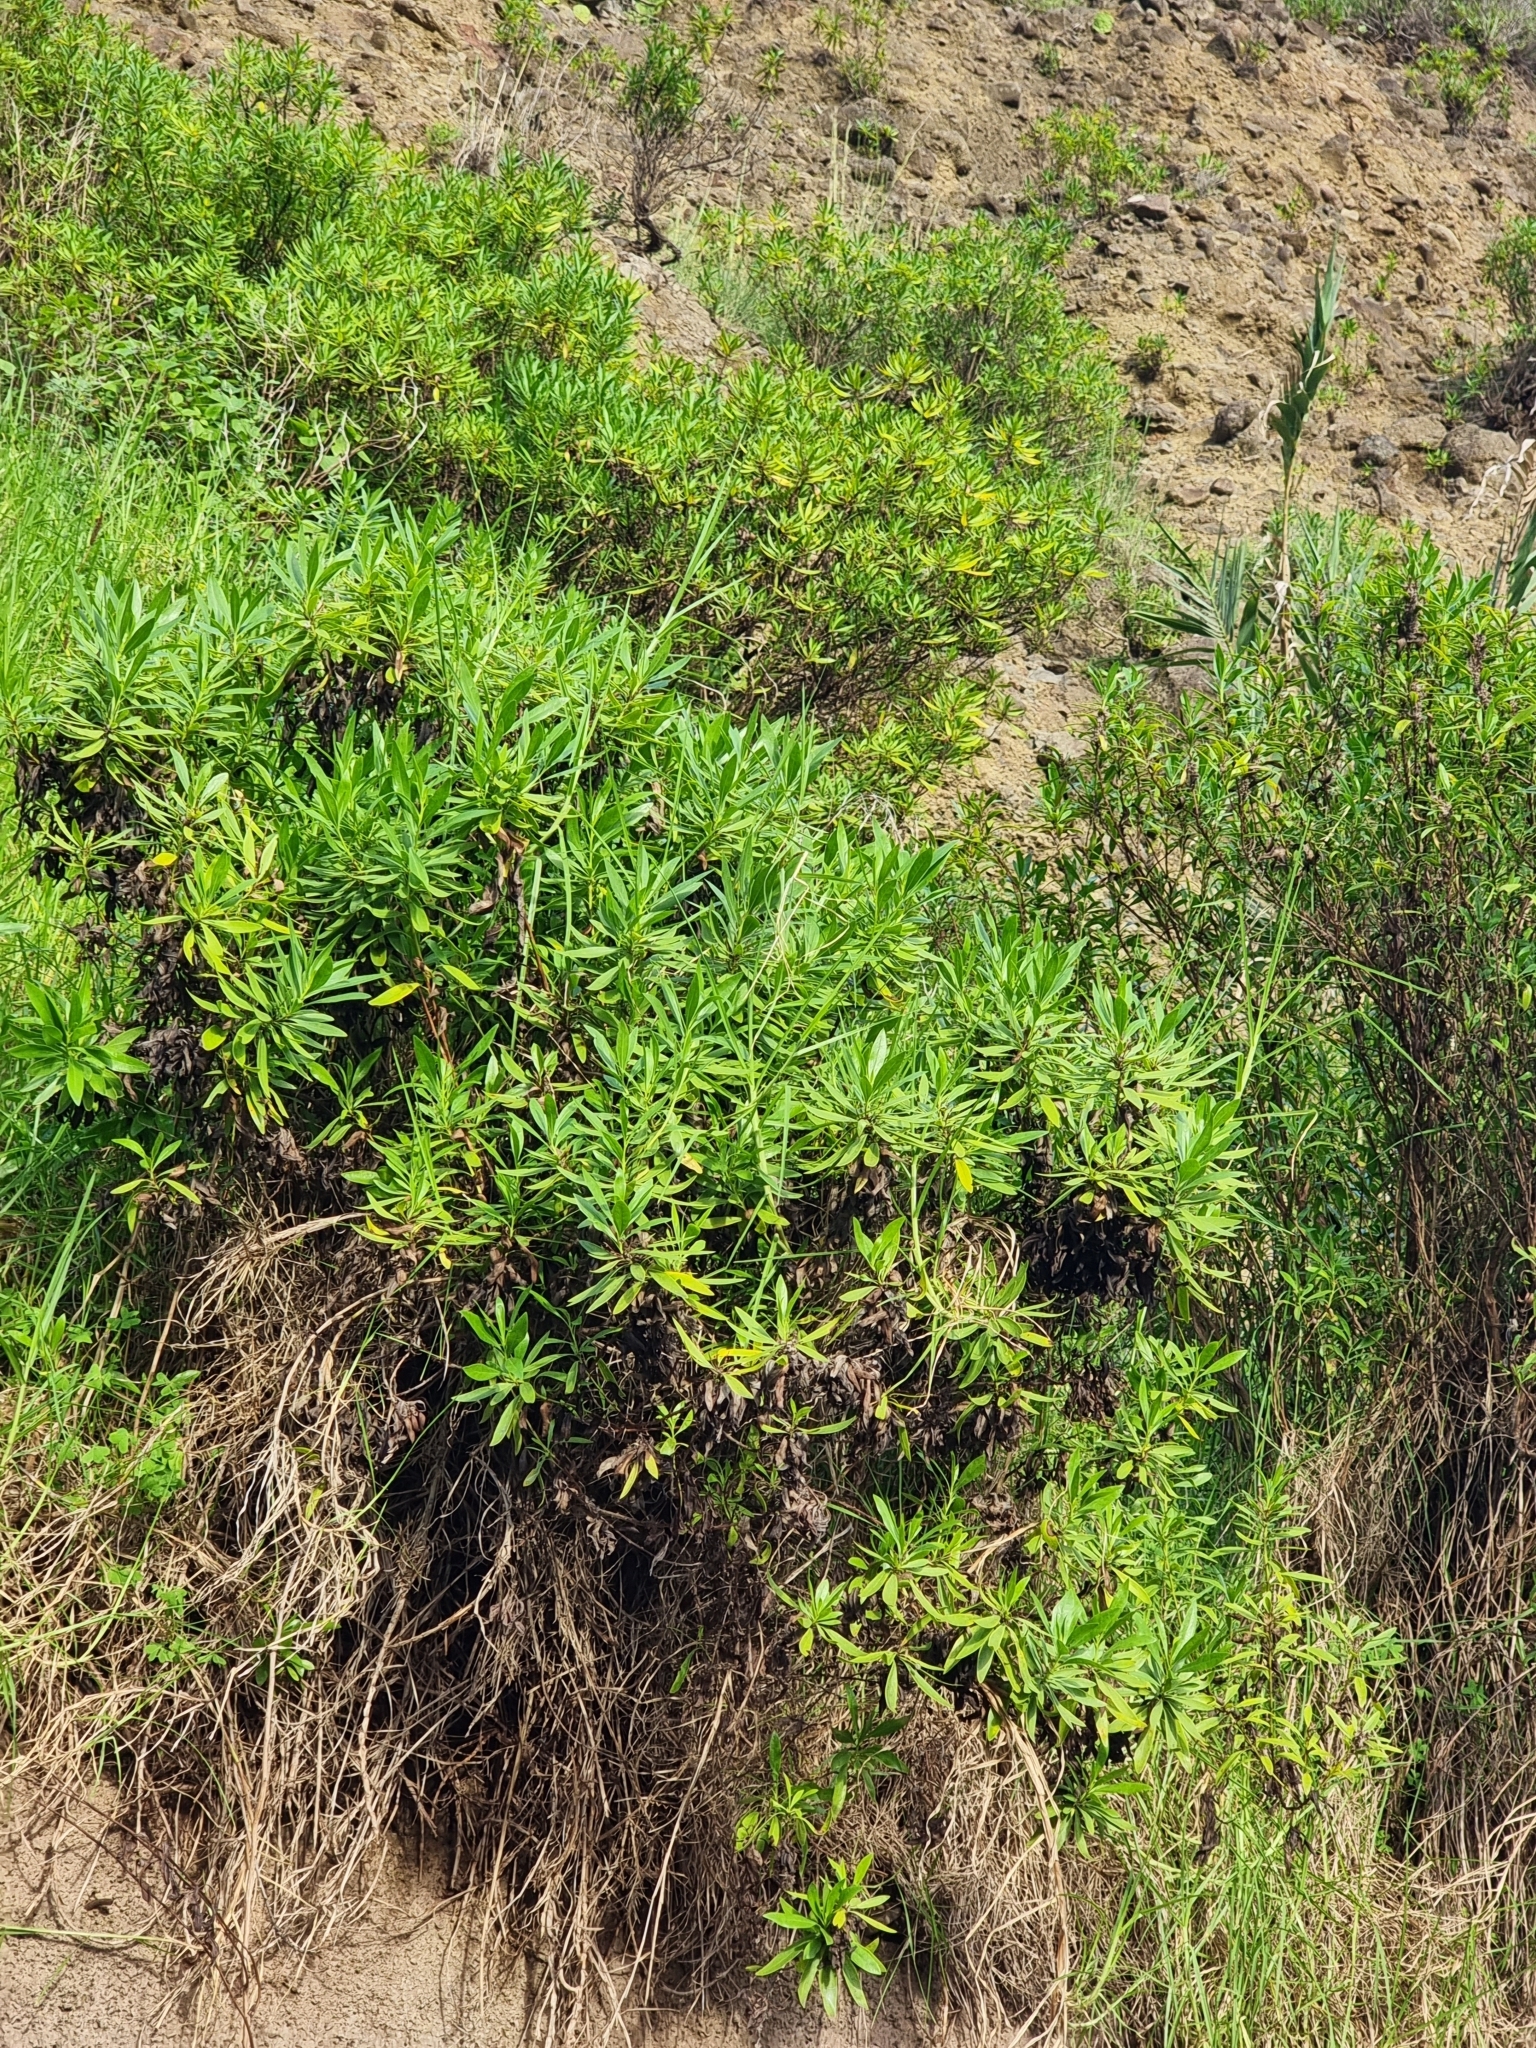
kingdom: Plantae
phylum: Tracheophyta
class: Magnoliopsida
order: Lamiales
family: Plantaginaceae
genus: Globularia
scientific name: Globularia salicina
